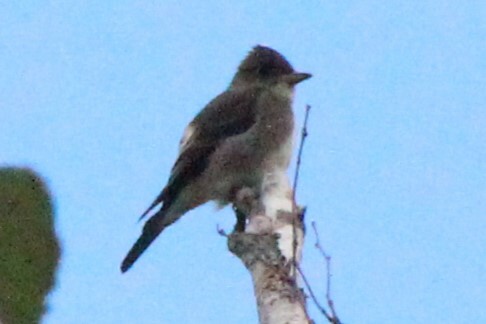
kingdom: Animalia
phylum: Chordata
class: Aves
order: Passeriformes
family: Tyrannidae
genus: Contopus
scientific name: Contopus cooperi
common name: Olive-sided flycatcher
